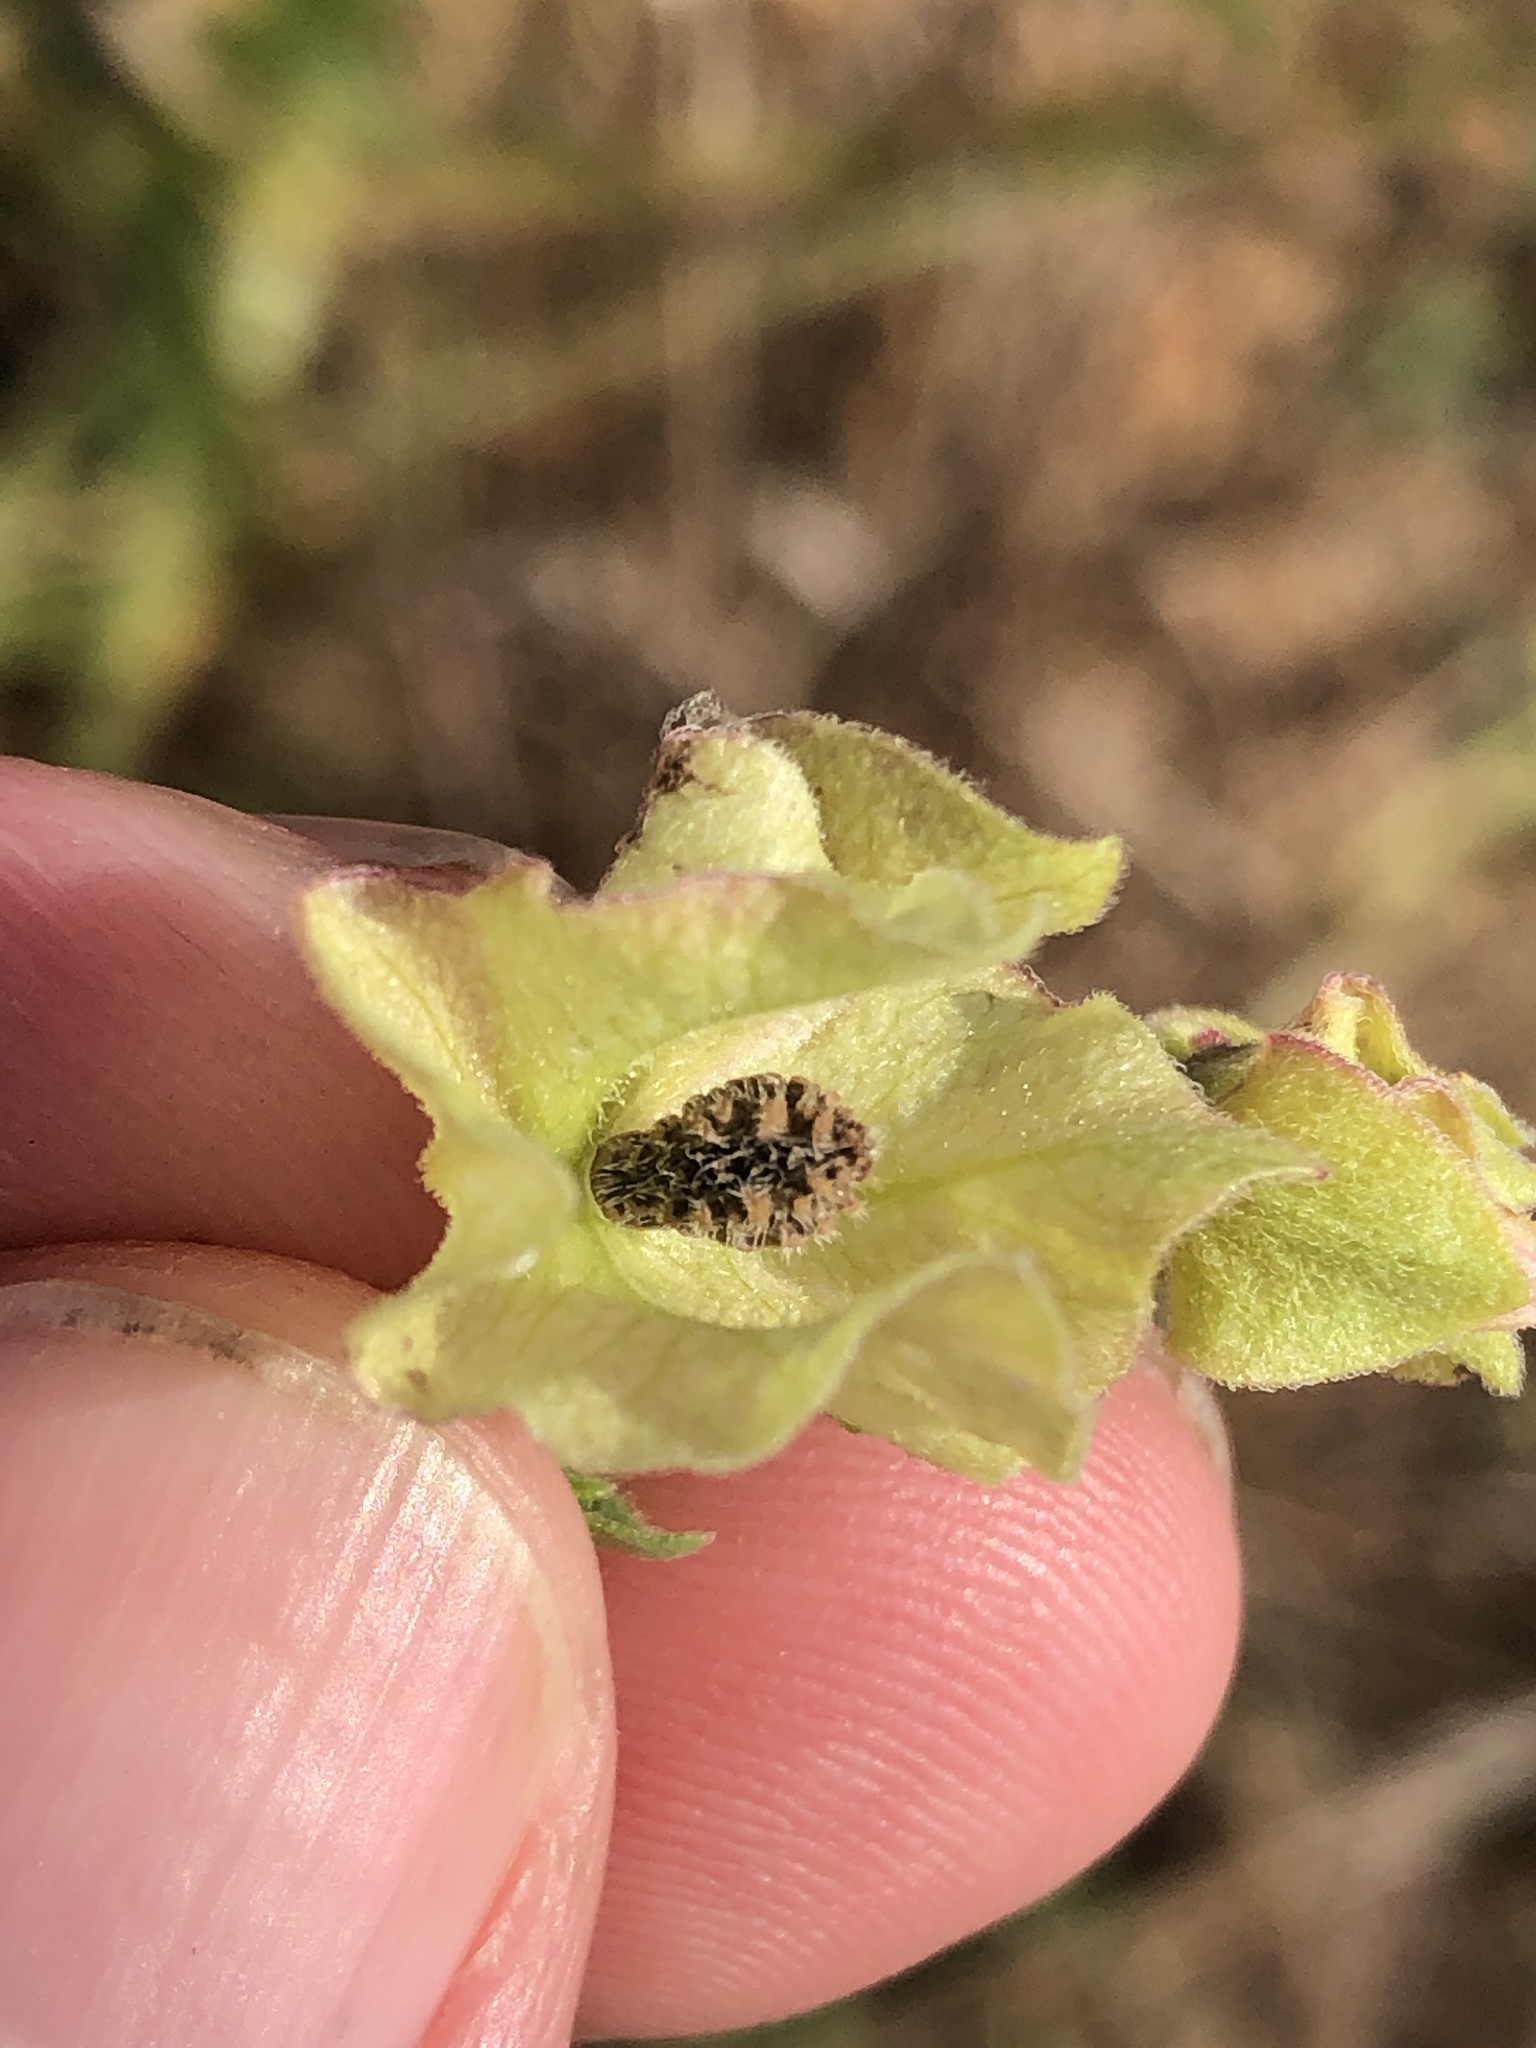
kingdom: Plantae
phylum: Tracheophyta
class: Magnoliopsida
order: Caryophyllales
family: Nyctaginaceae
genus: Mirabilis
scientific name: Mirabilis albida
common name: Hairy four-o'clock
